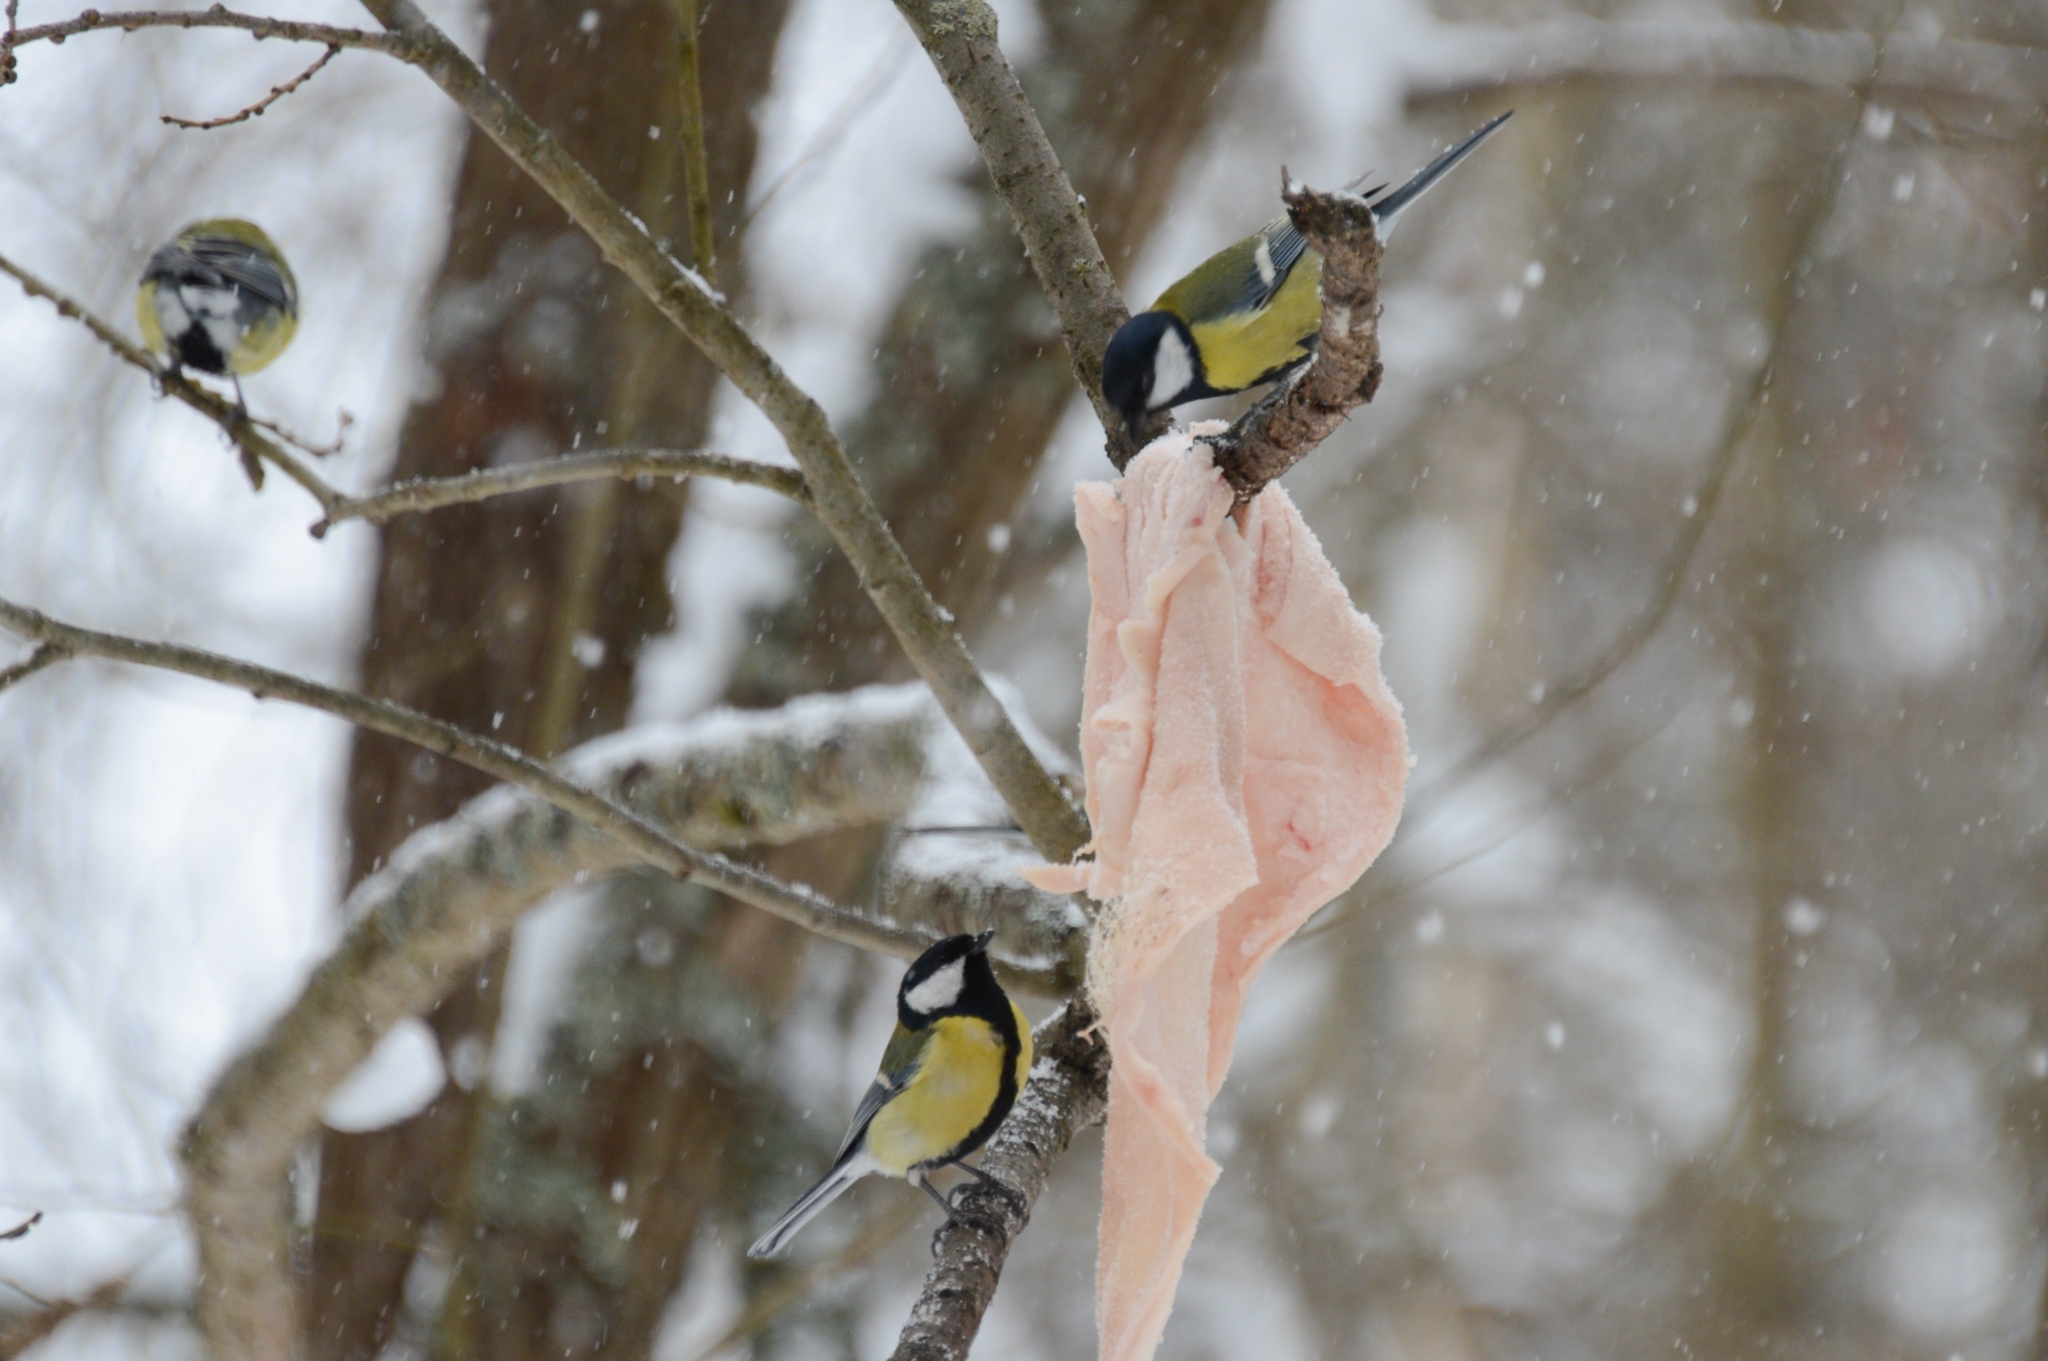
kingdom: Animalia
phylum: Chordata
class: Aves
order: Passeriformes
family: Paridae
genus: Parus
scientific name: Parus major
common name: Great tit
